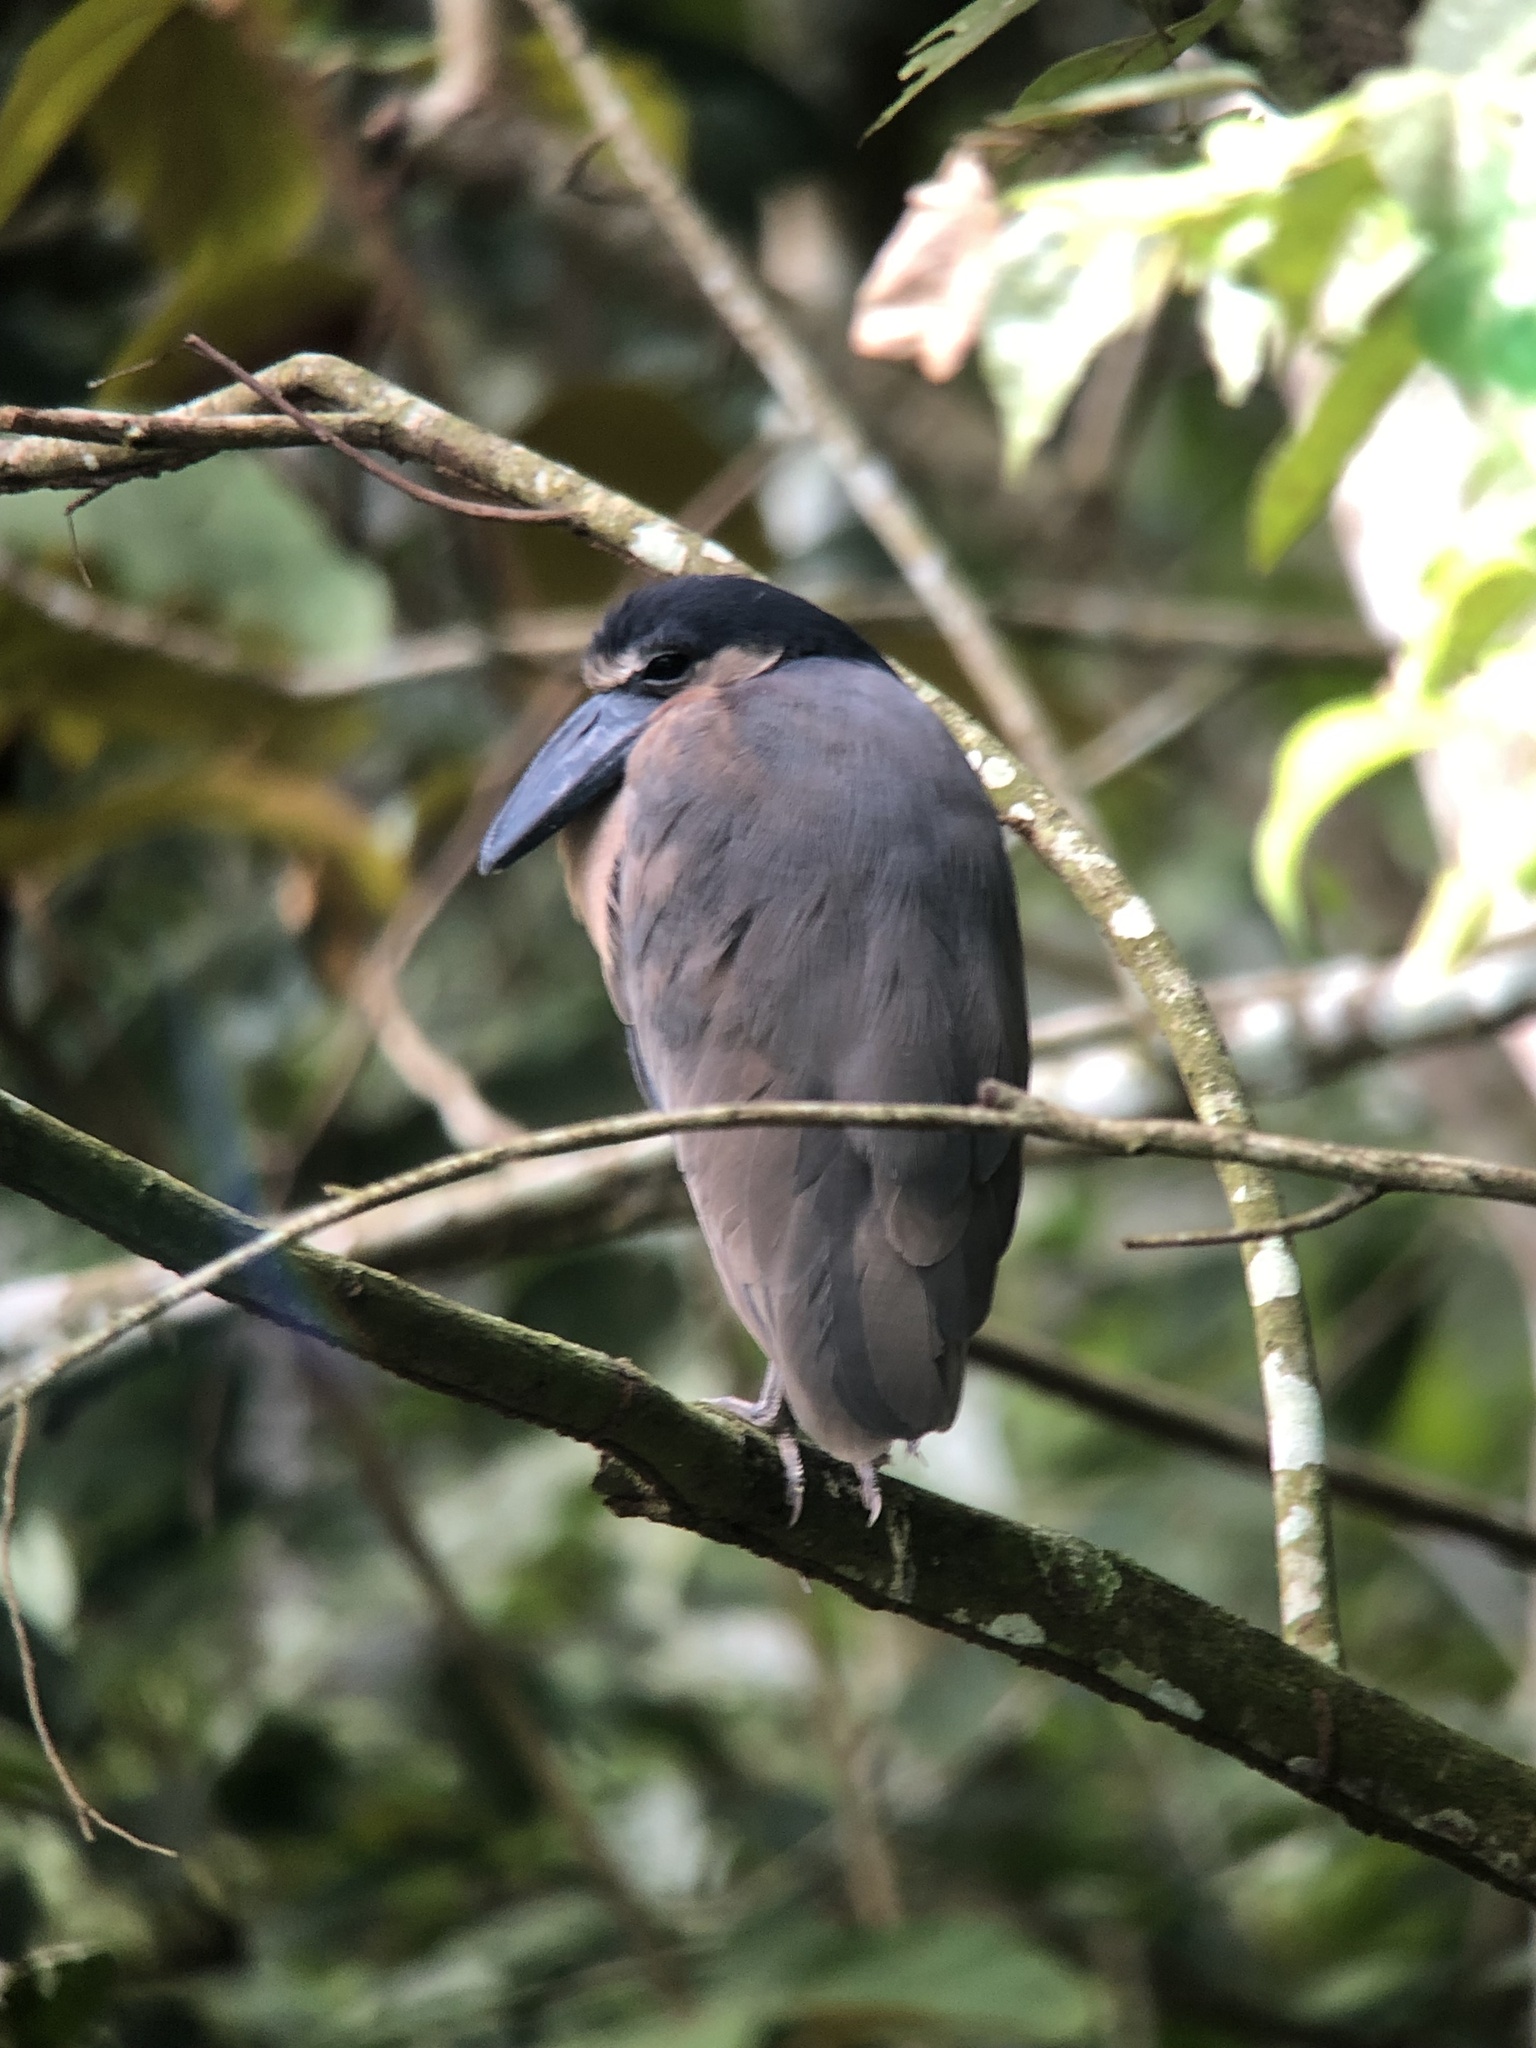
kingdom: Animalia
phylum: Chordata
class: Aves
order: Pelecaniformes
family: Ardeidae
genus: Cochlearius
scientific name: Cochlearius cochlearius
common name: Boat-billed heron
